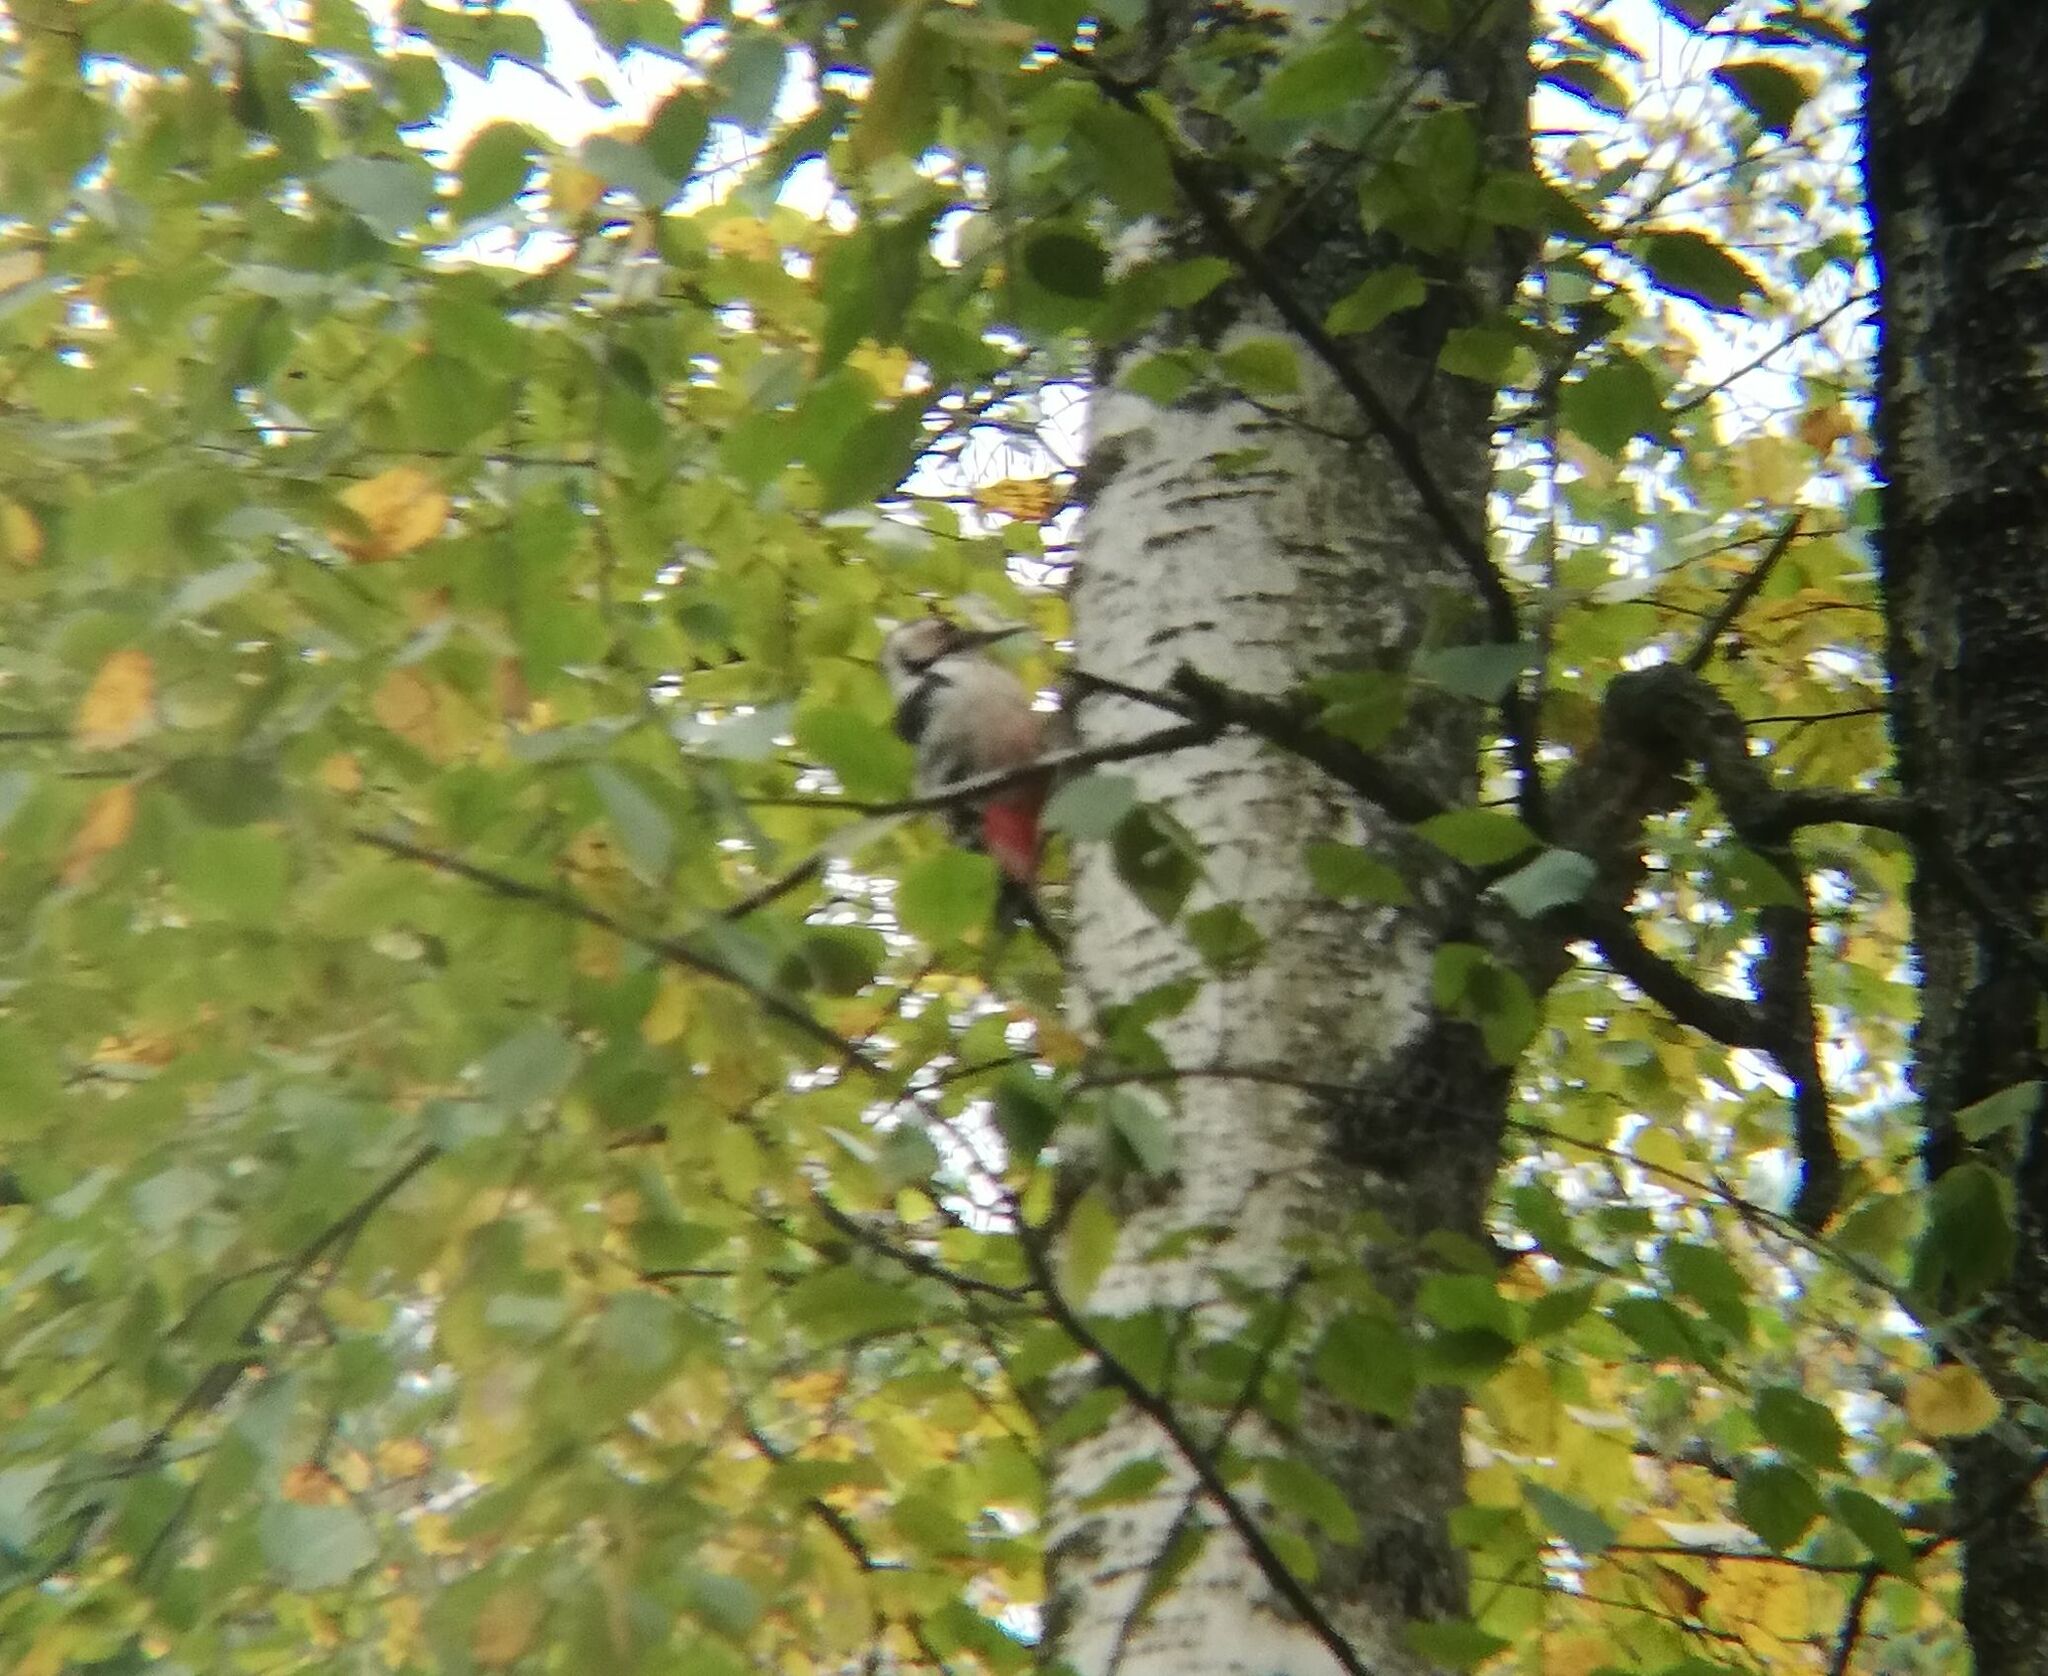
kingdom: Animalia
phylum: Chordata
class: Aves
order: Piciformes
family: Picidae
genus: Dendrocopos
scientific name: Dendrocopos leucotos
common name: White-backed woodpecker
